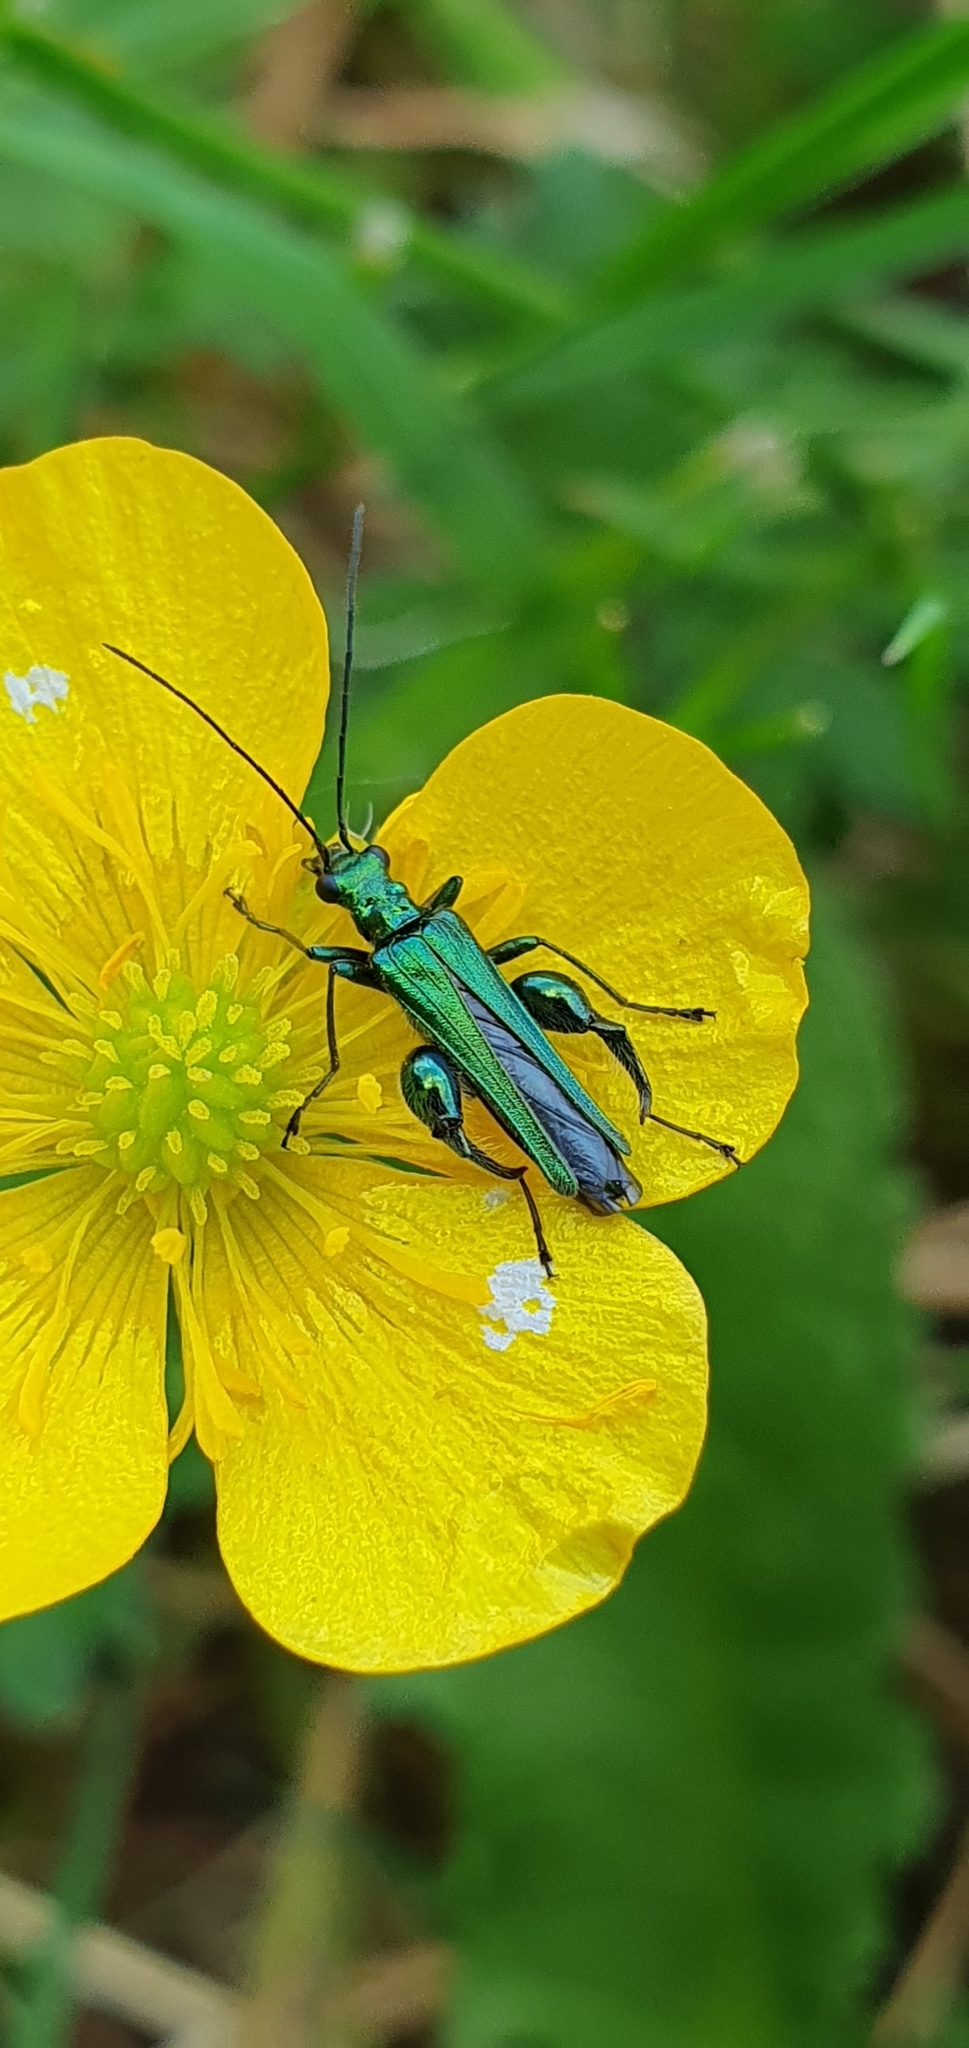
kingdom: Animalia
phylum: Arthropoda
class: Insecta
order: Coleoptera
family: Oedemeridae
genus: Oedemera
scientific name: Oedemera nobilis
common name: Swollen-thighed beetle
